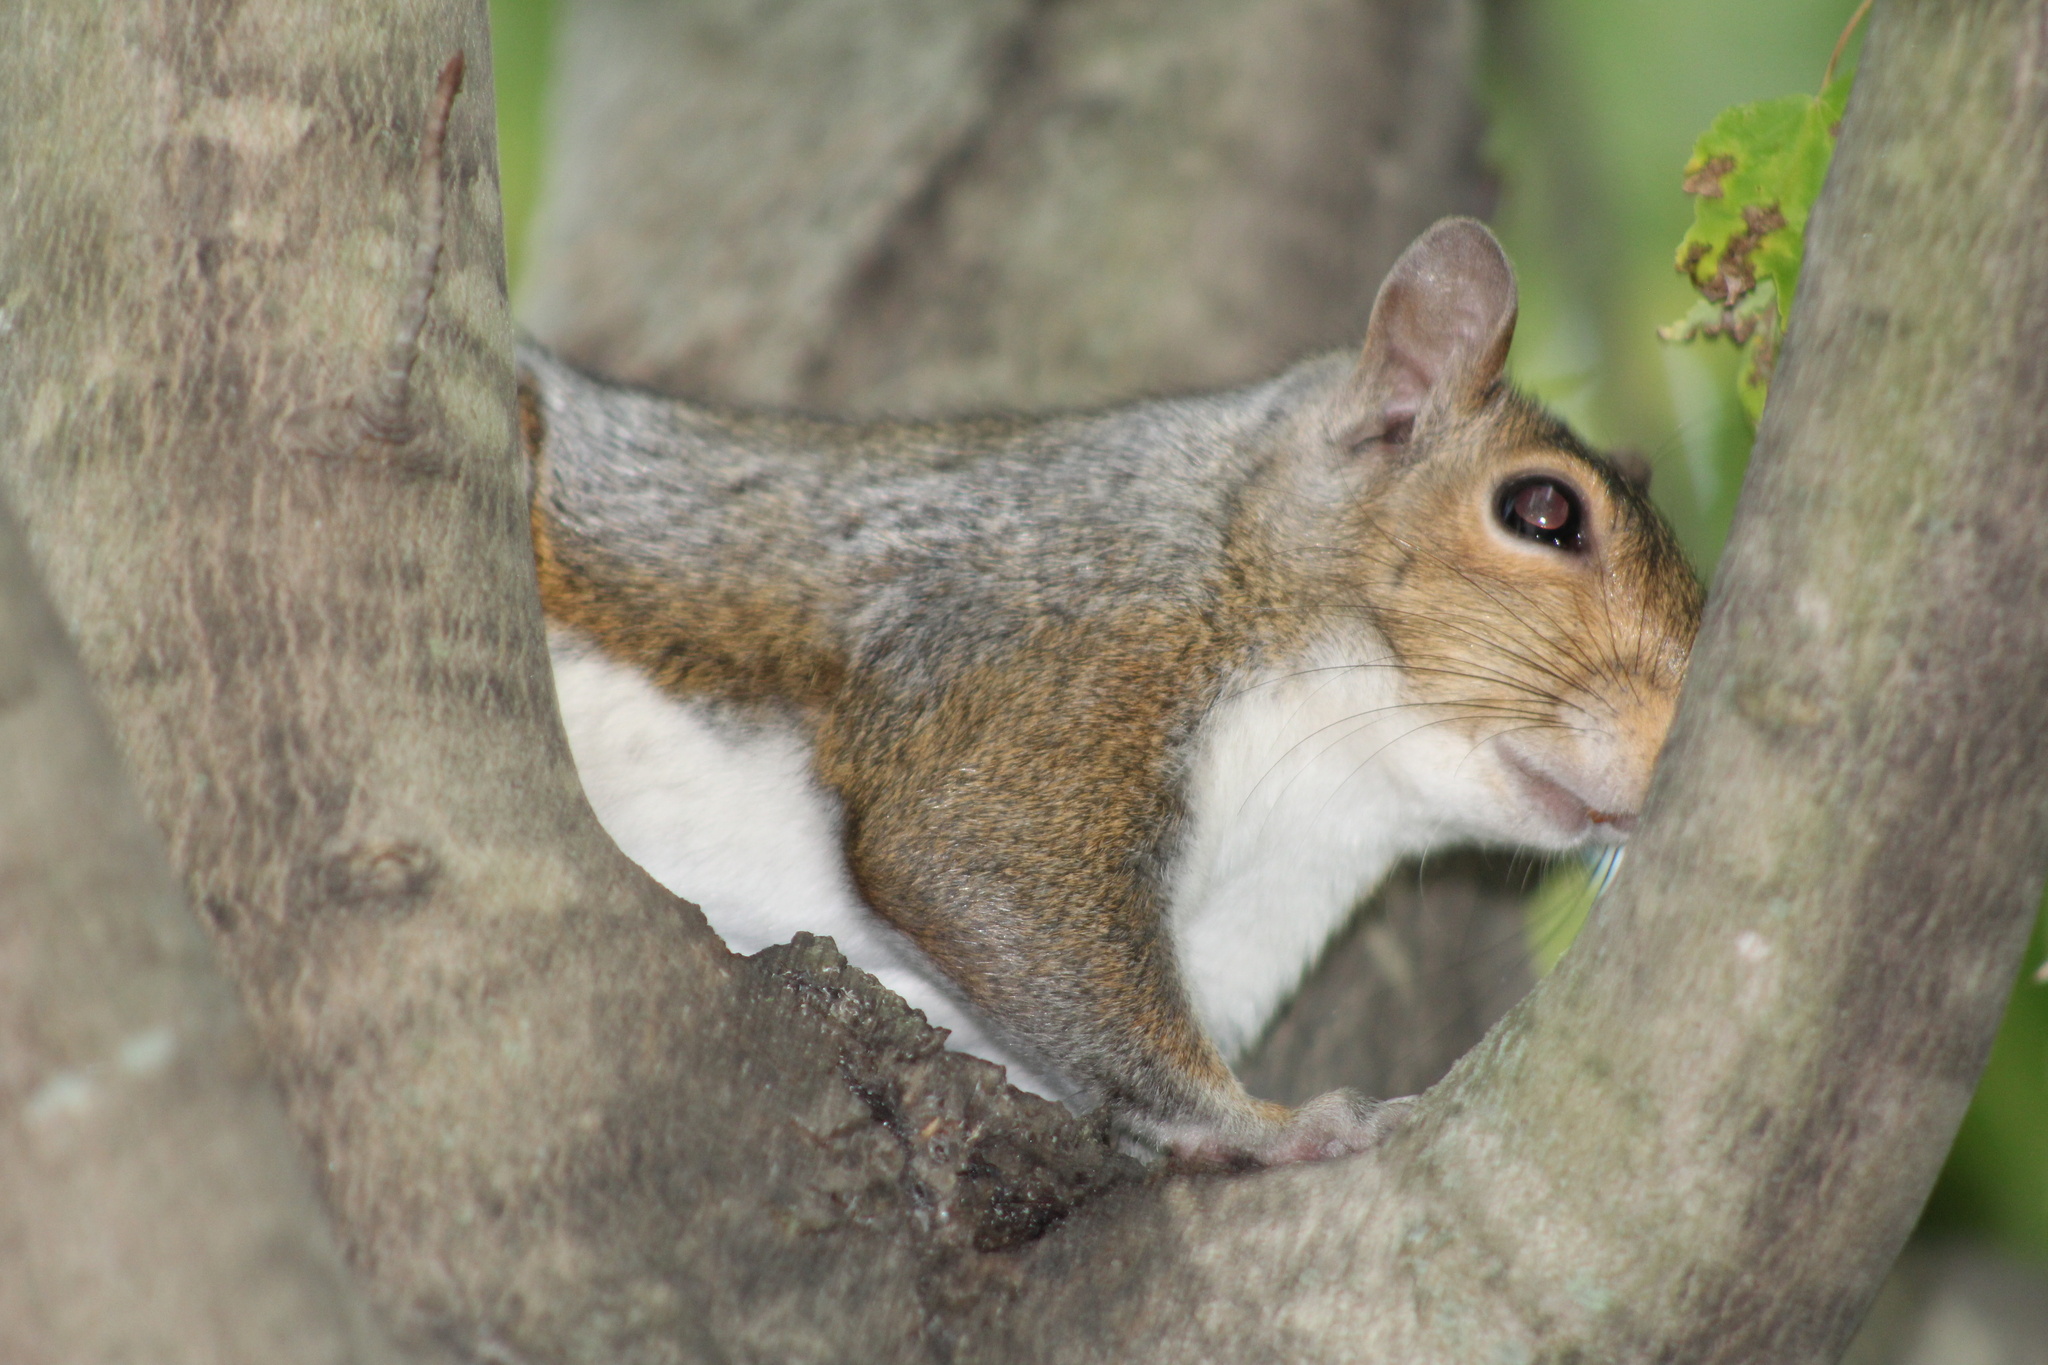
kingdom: Animalia
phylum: Chordata
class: Mammalia
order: Rodentia
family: Sciuridae
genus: Sciurus
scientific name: Sciurus carolinensis
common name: Eastern gray squirrel
